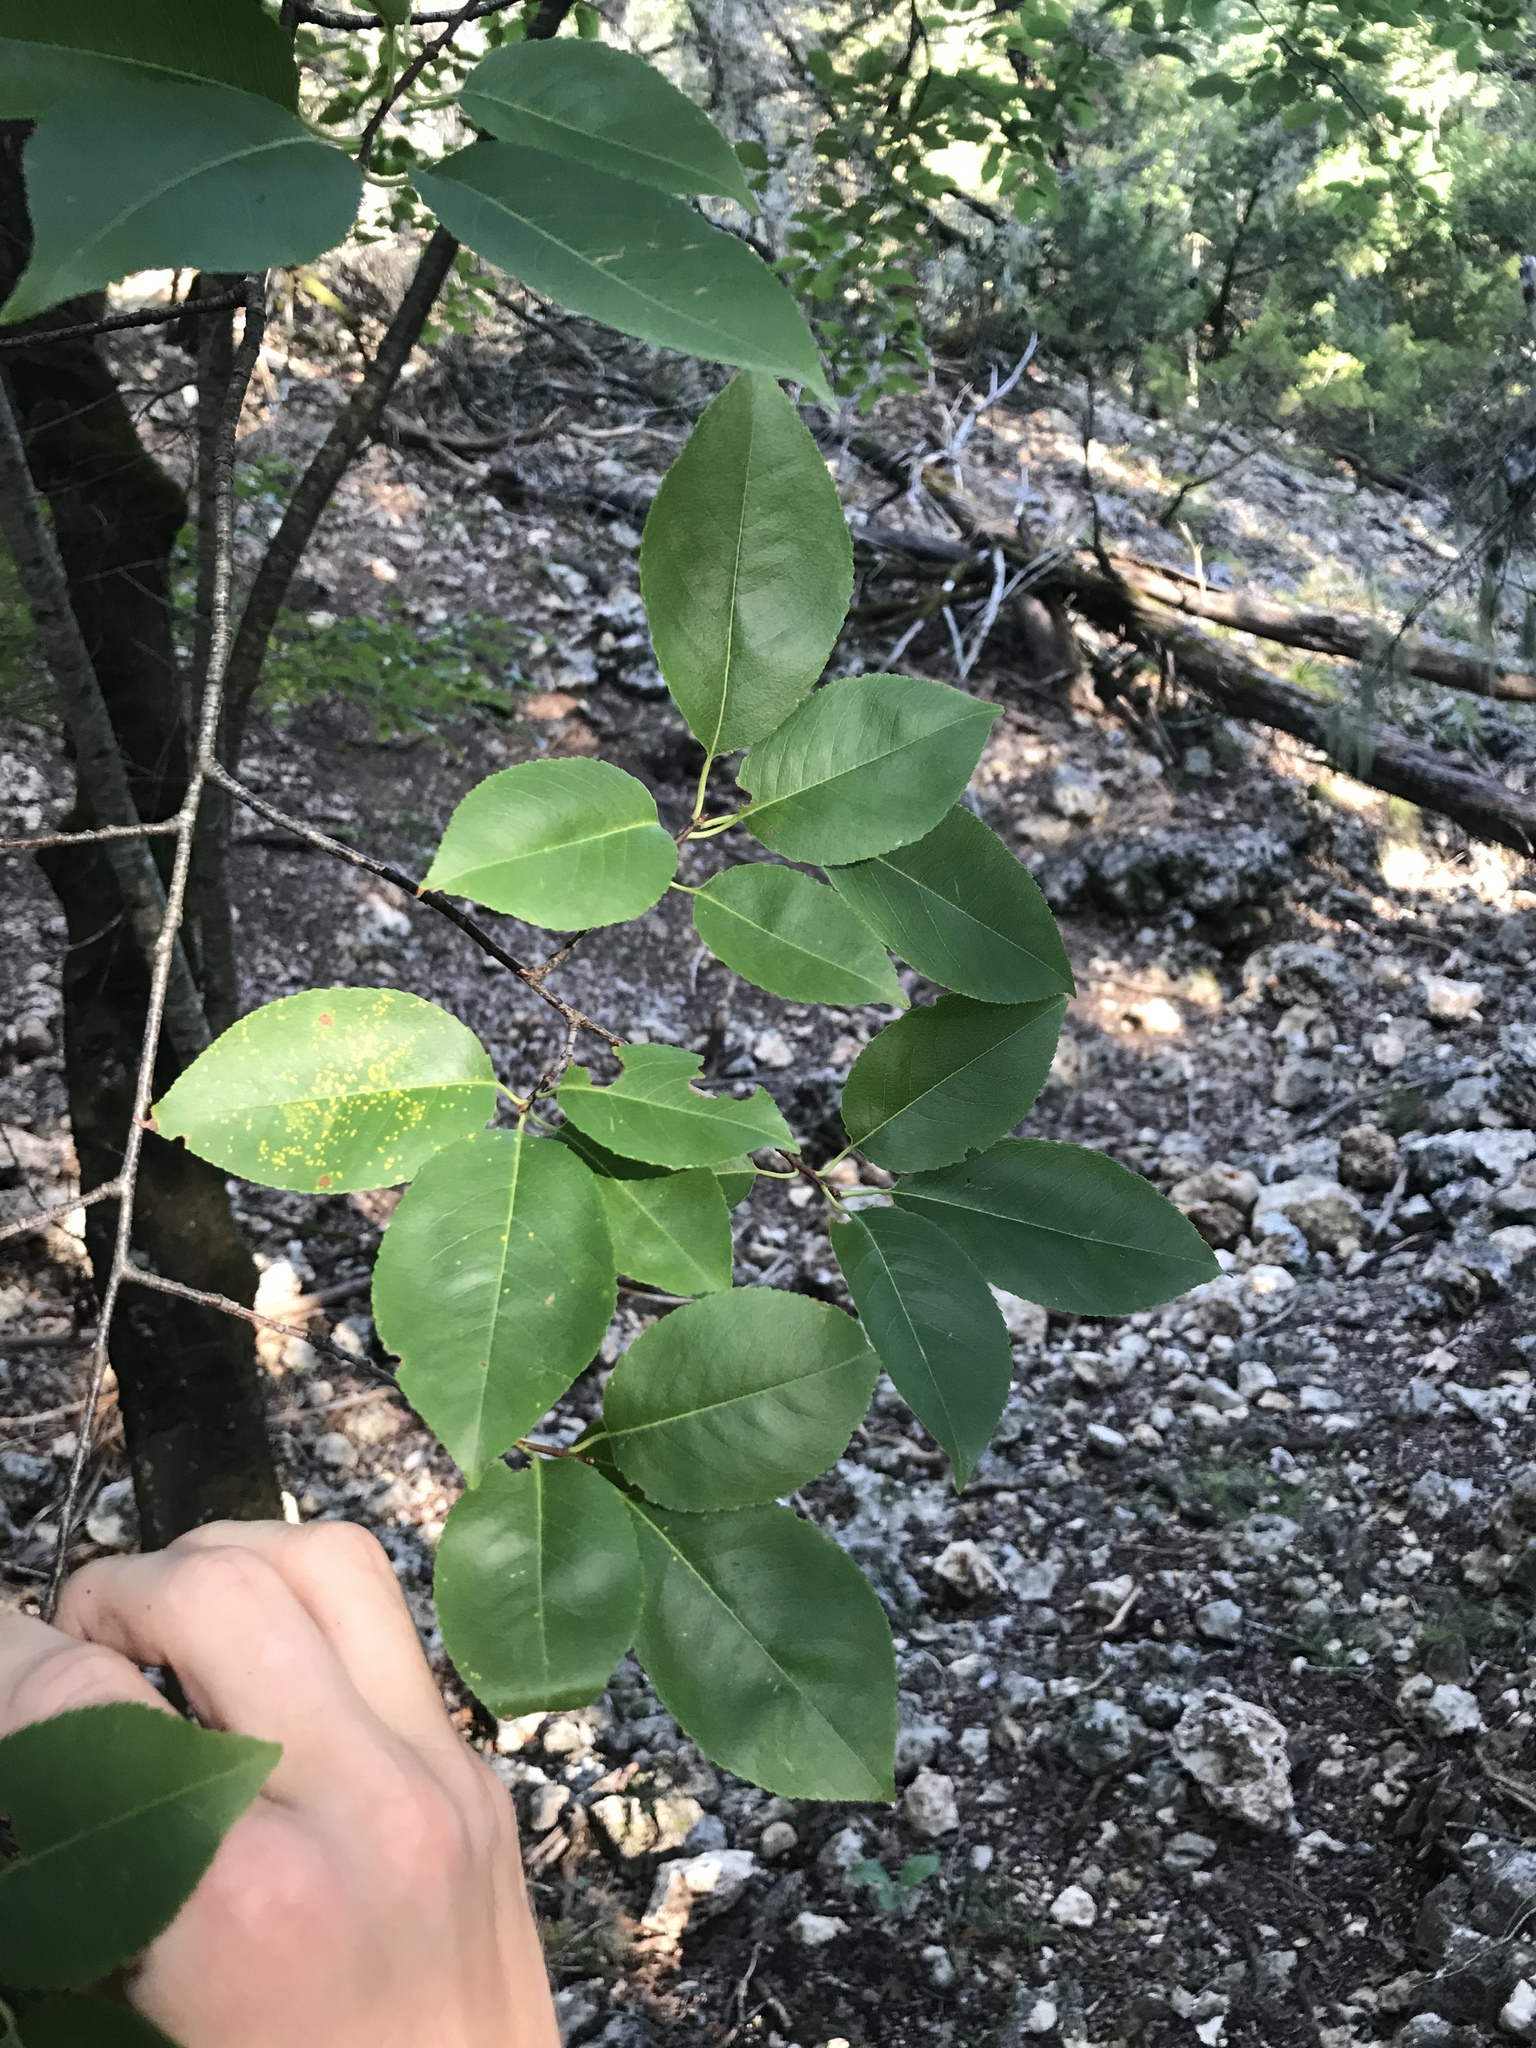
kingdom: Plantae
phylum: Tracheophyta
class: Magnoliopsida
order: Rosales
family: Rosaceae
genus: Prunus
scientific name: Prunus serotina
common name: Black cherry
